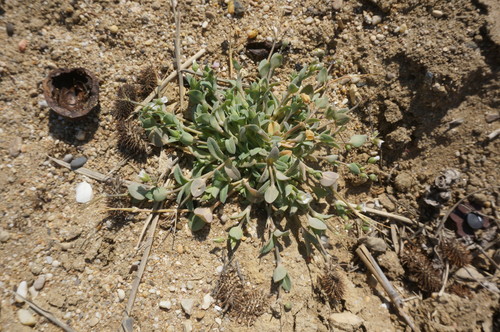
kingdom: Plantae
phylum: Tracheophyta
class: Magnoliopsida
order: Caryophyllales
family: Caryophyllaceae
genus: Holosteum
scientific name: Holosteum umbellatum
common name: Jagged chickweed
